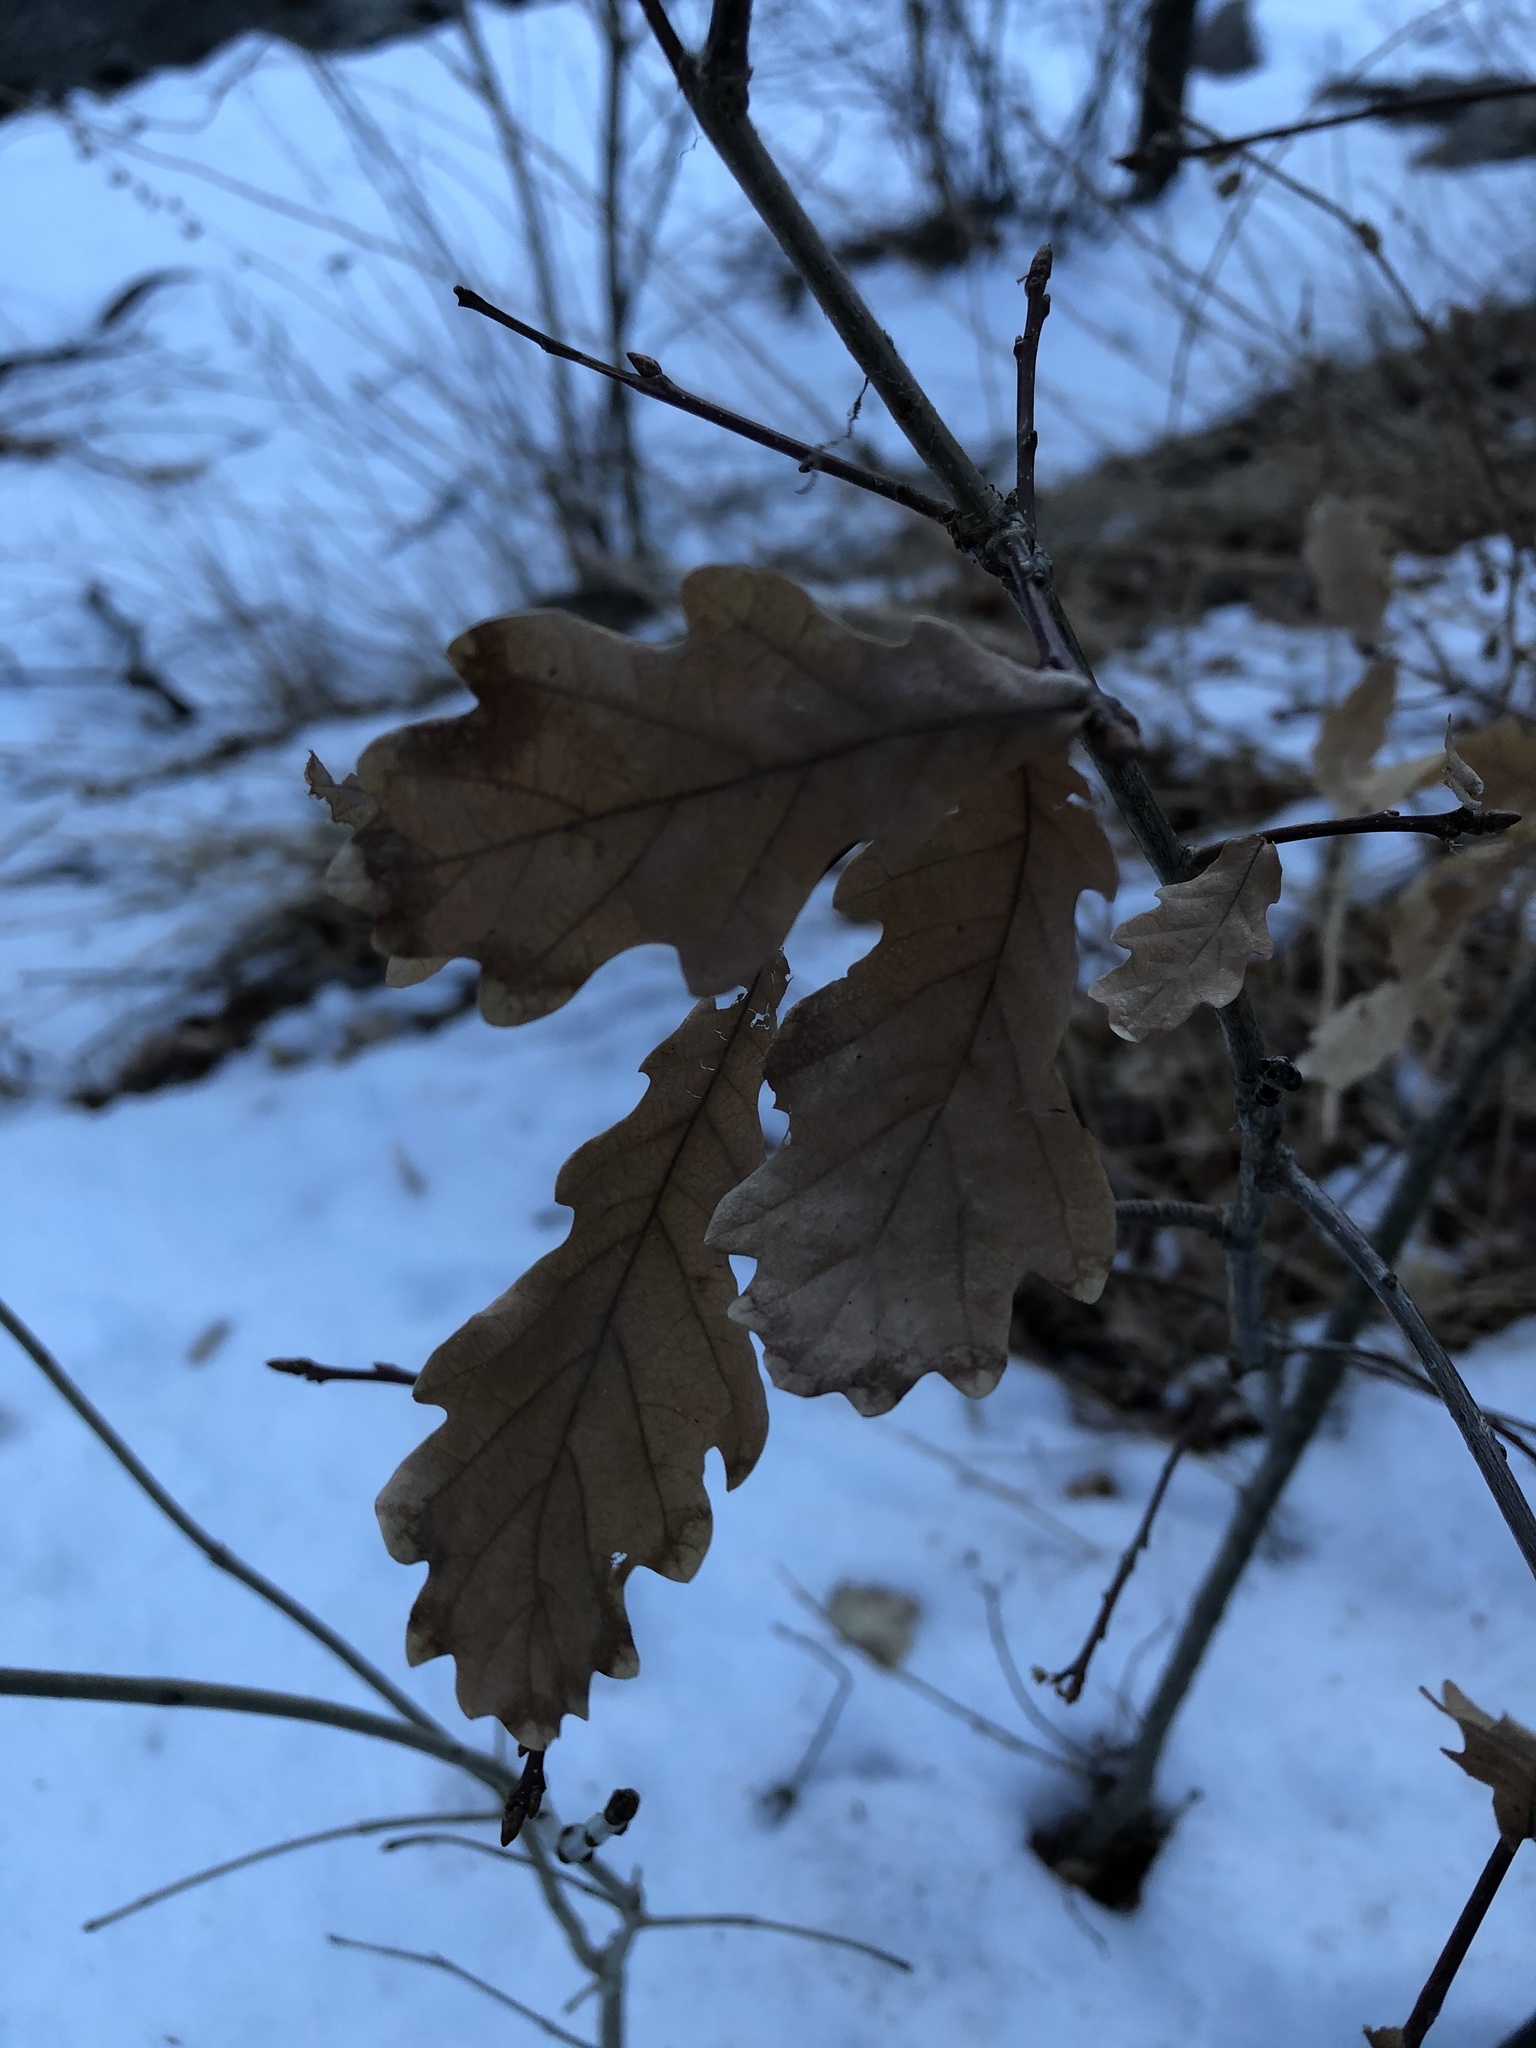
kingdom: Plantae
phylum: Tracheophyta
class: Magnoliopsida
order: Fagales
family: Fagaceae
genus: Quercus
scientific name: Quercus
